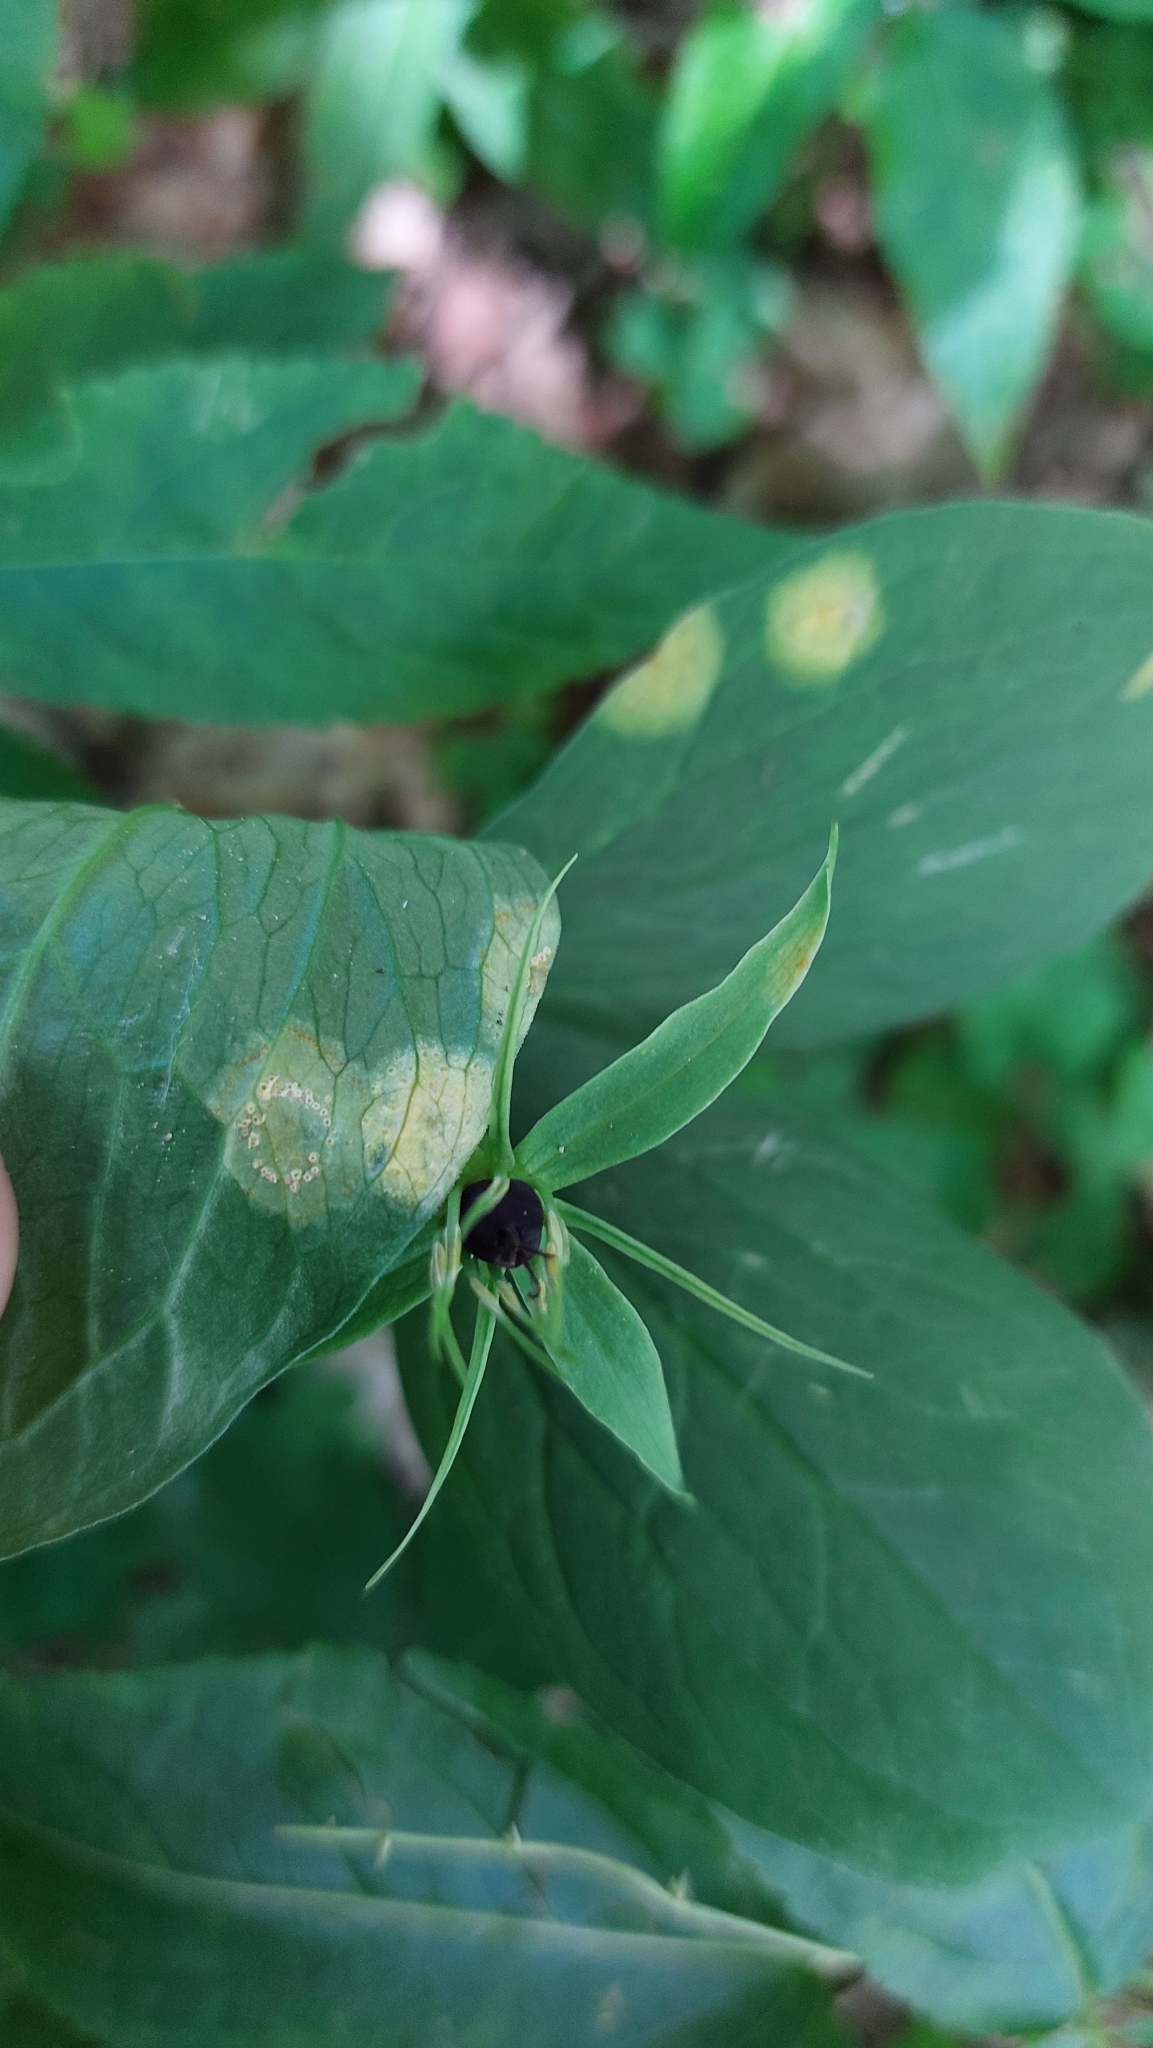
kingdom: Fungi
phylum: Basidiomycota
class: Pucciniomycetes
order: Pucciniales
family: Pucciniaceae
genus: Puccinia
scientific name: Puccinia sessilis
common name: Arum rust
